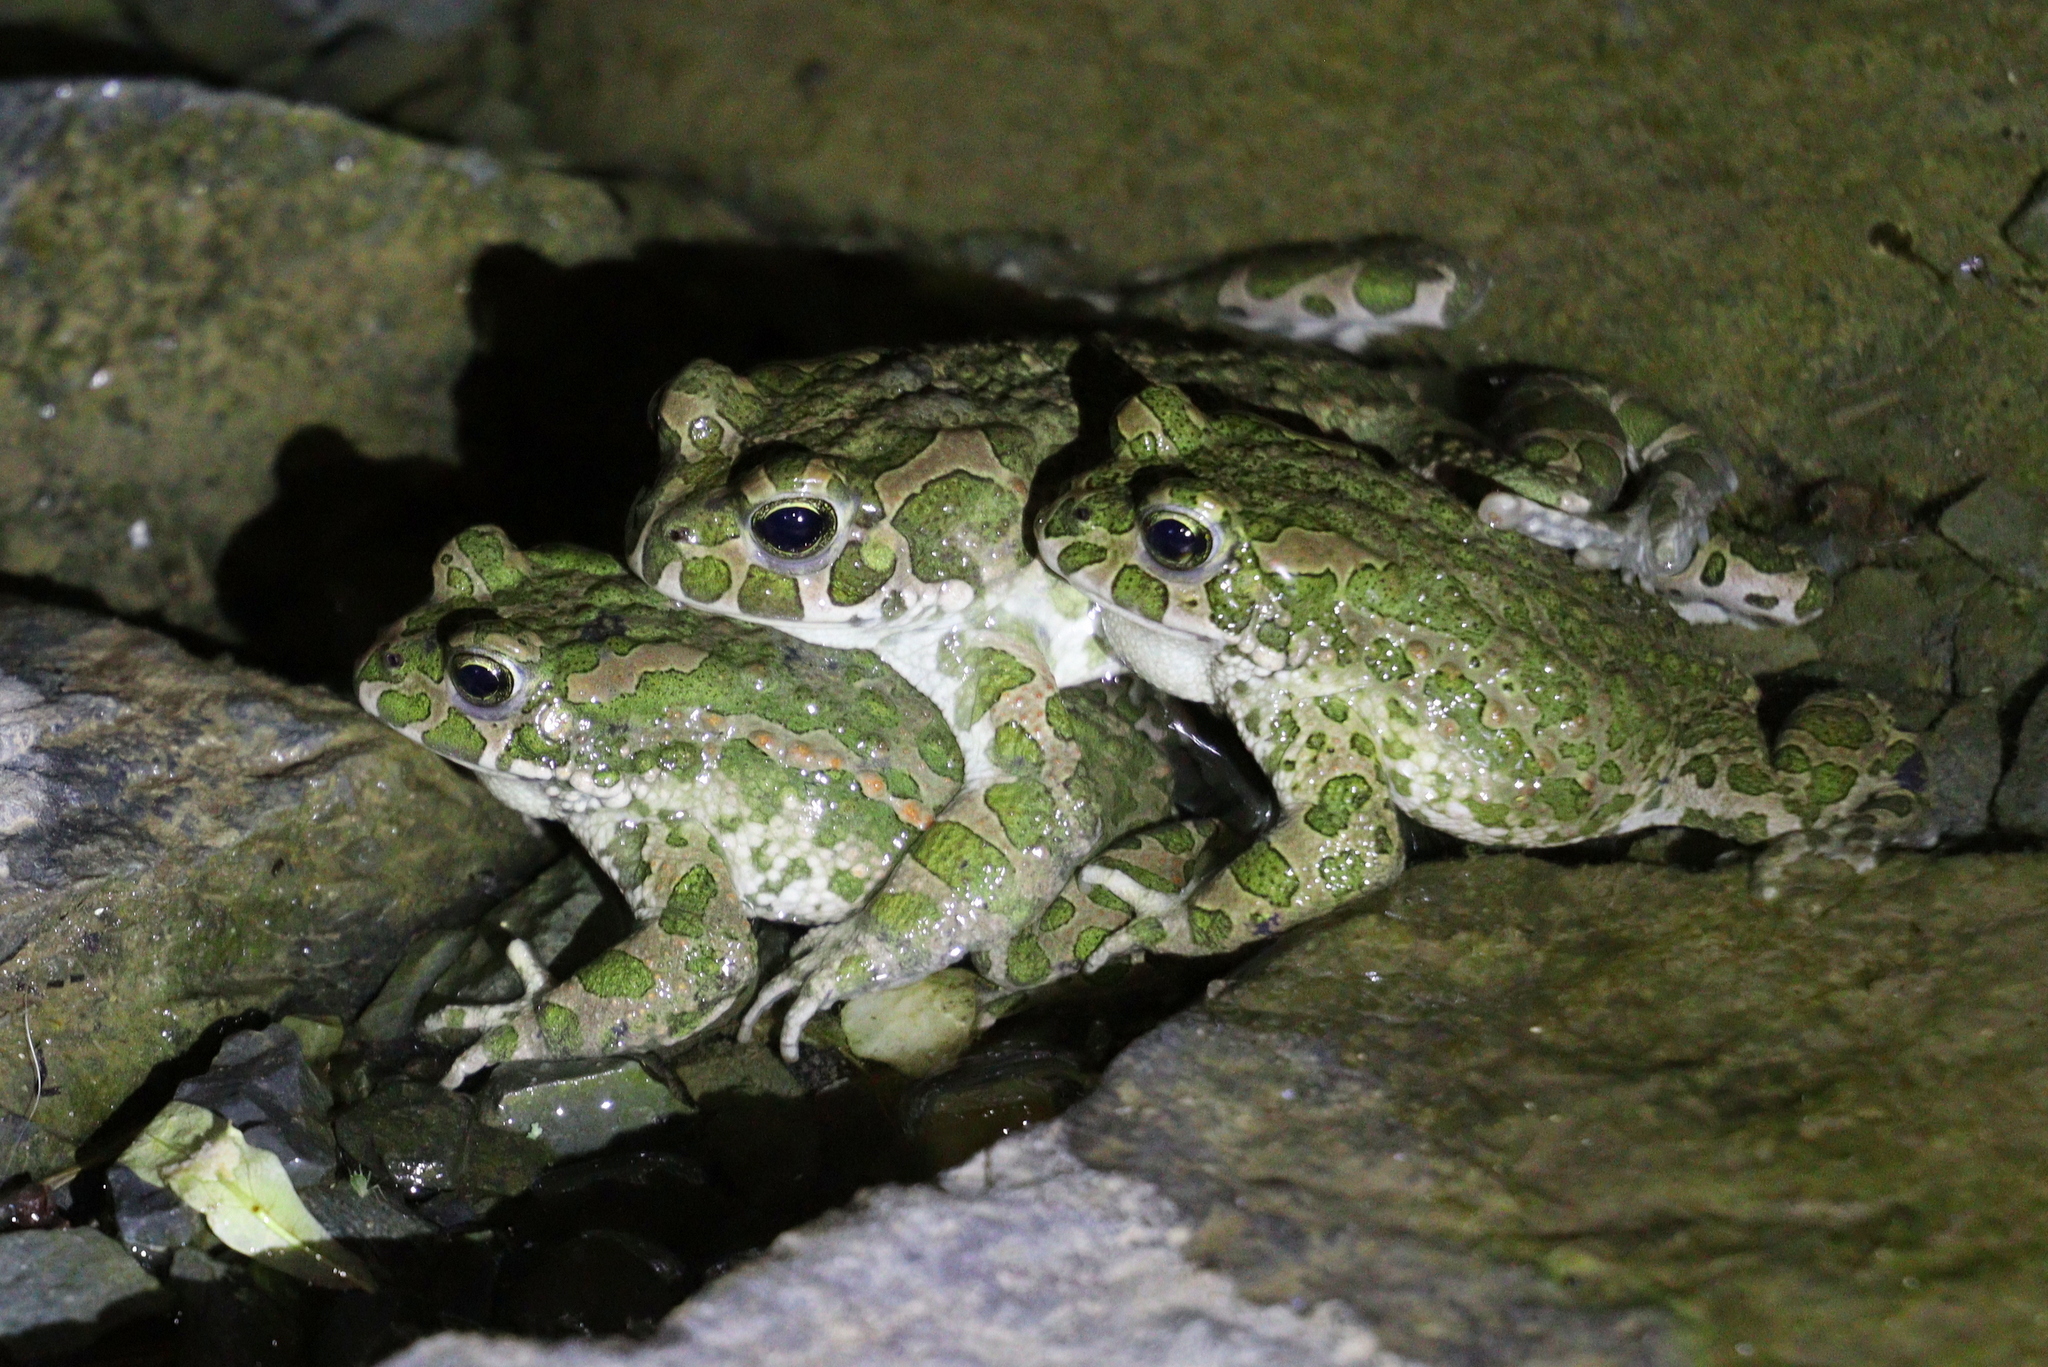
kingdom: Animalia
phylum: Chordata
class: Amphibia
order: Anura
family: Bufonidae
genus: Bufotes
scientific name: Bufotes viridis
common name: European green toad
